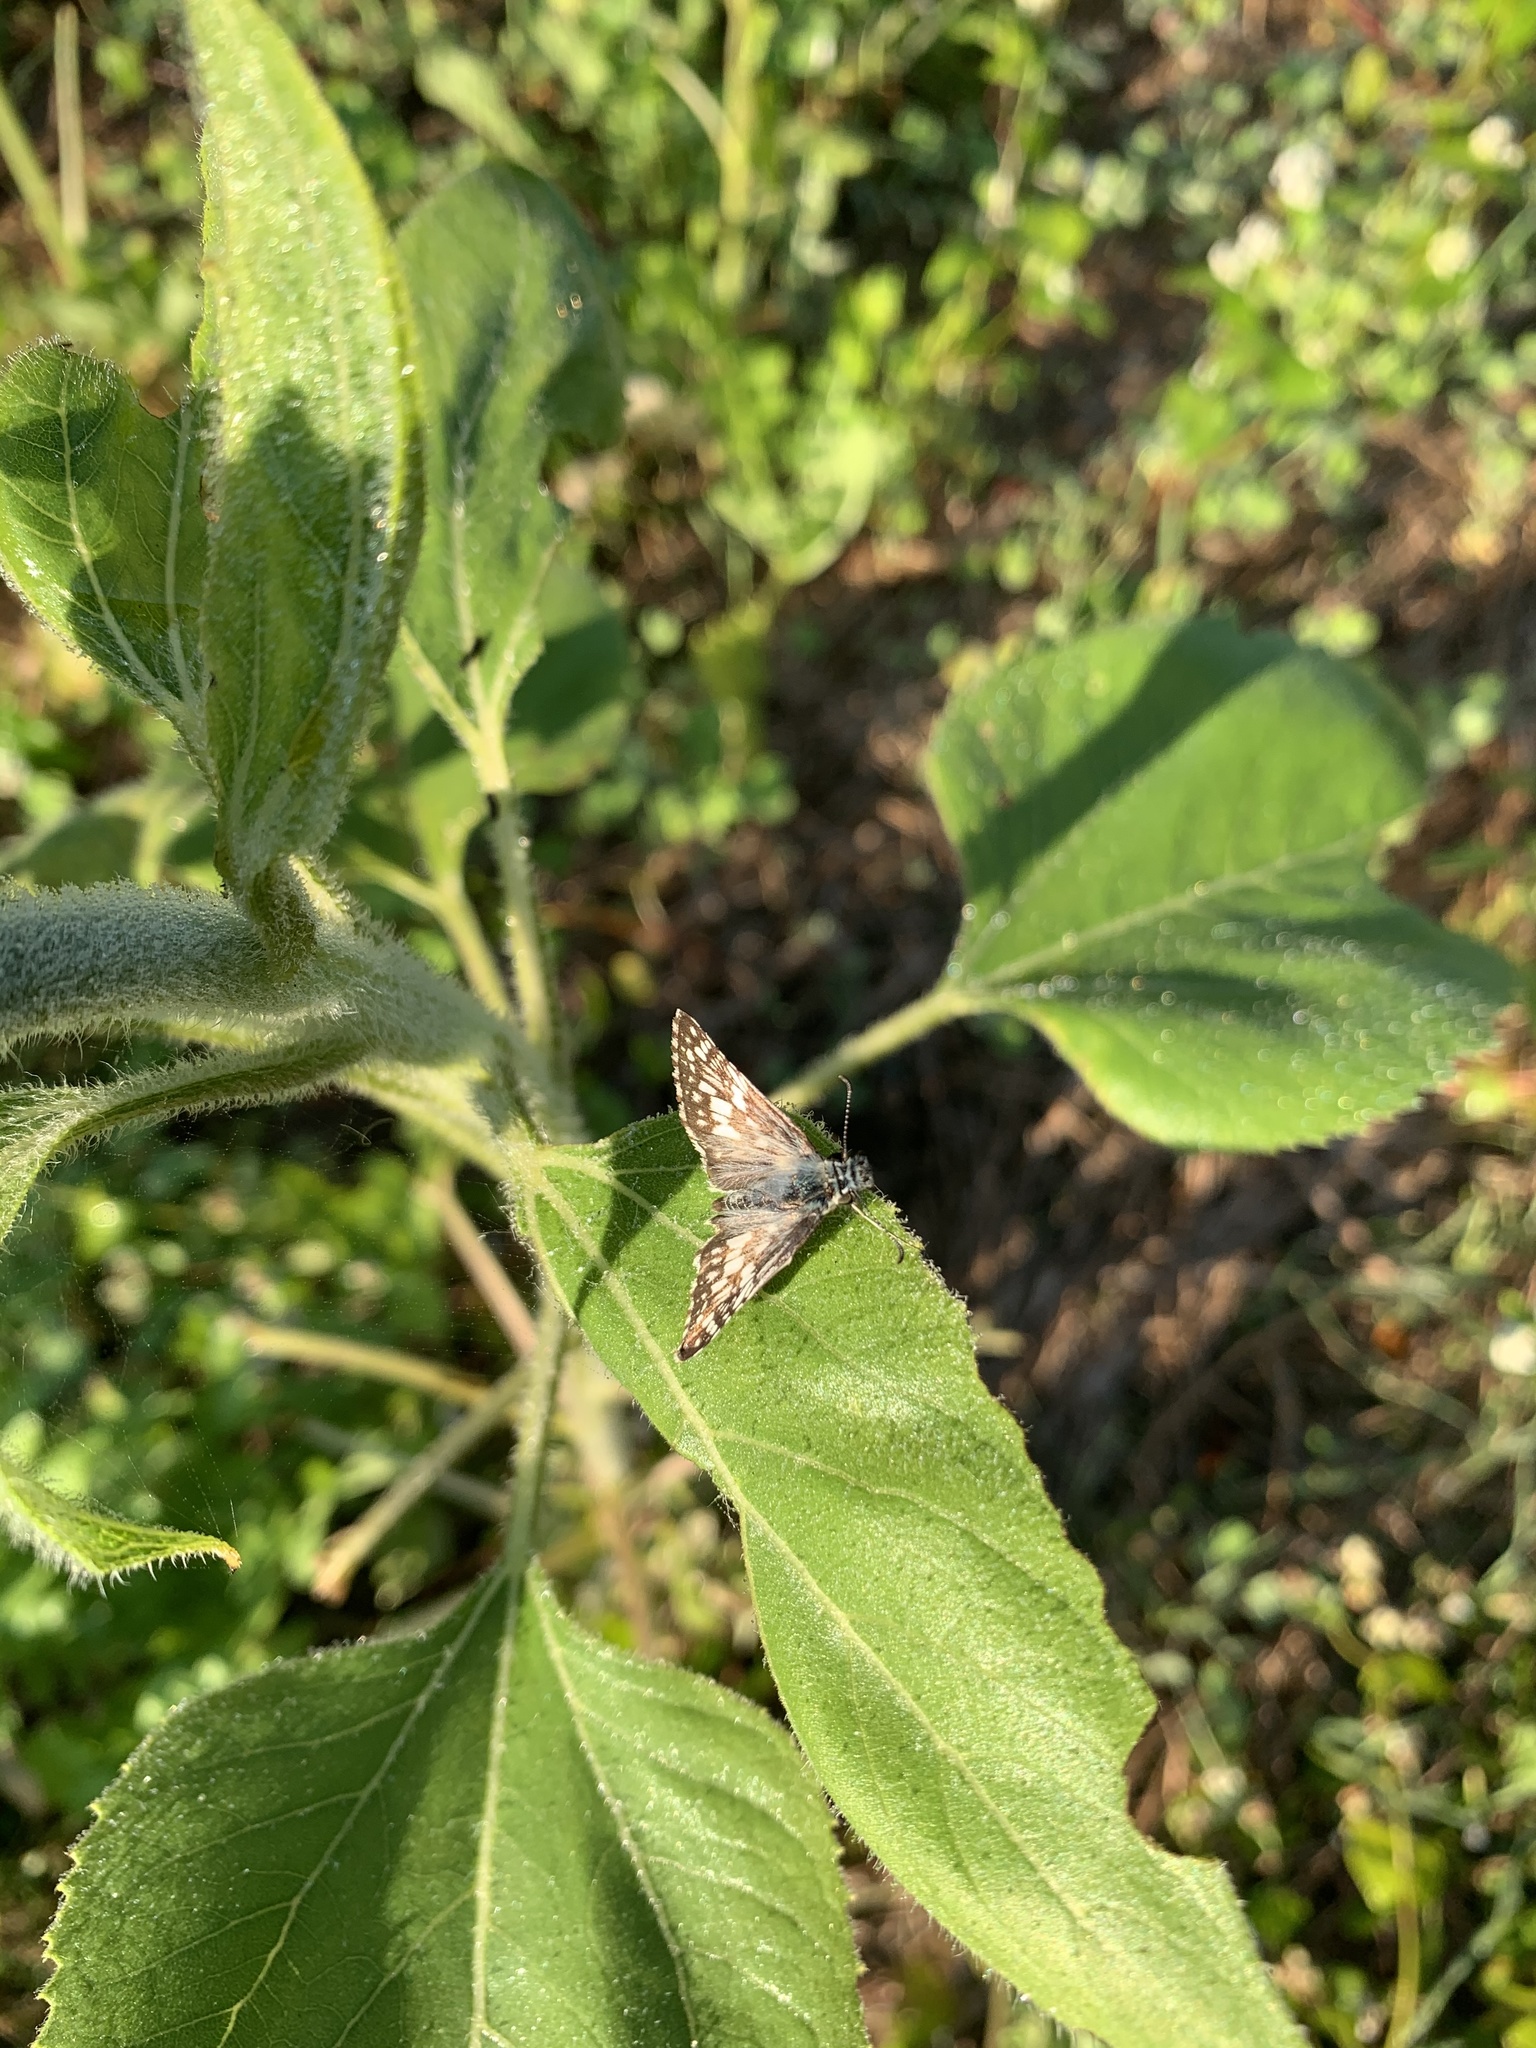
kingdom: Animalia
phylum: Arthropoda
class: Insecta
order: Lepidoptera
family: Hesperiidae
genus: Burnsius
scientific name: Burnsius communis
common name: Common checkered-skipper
